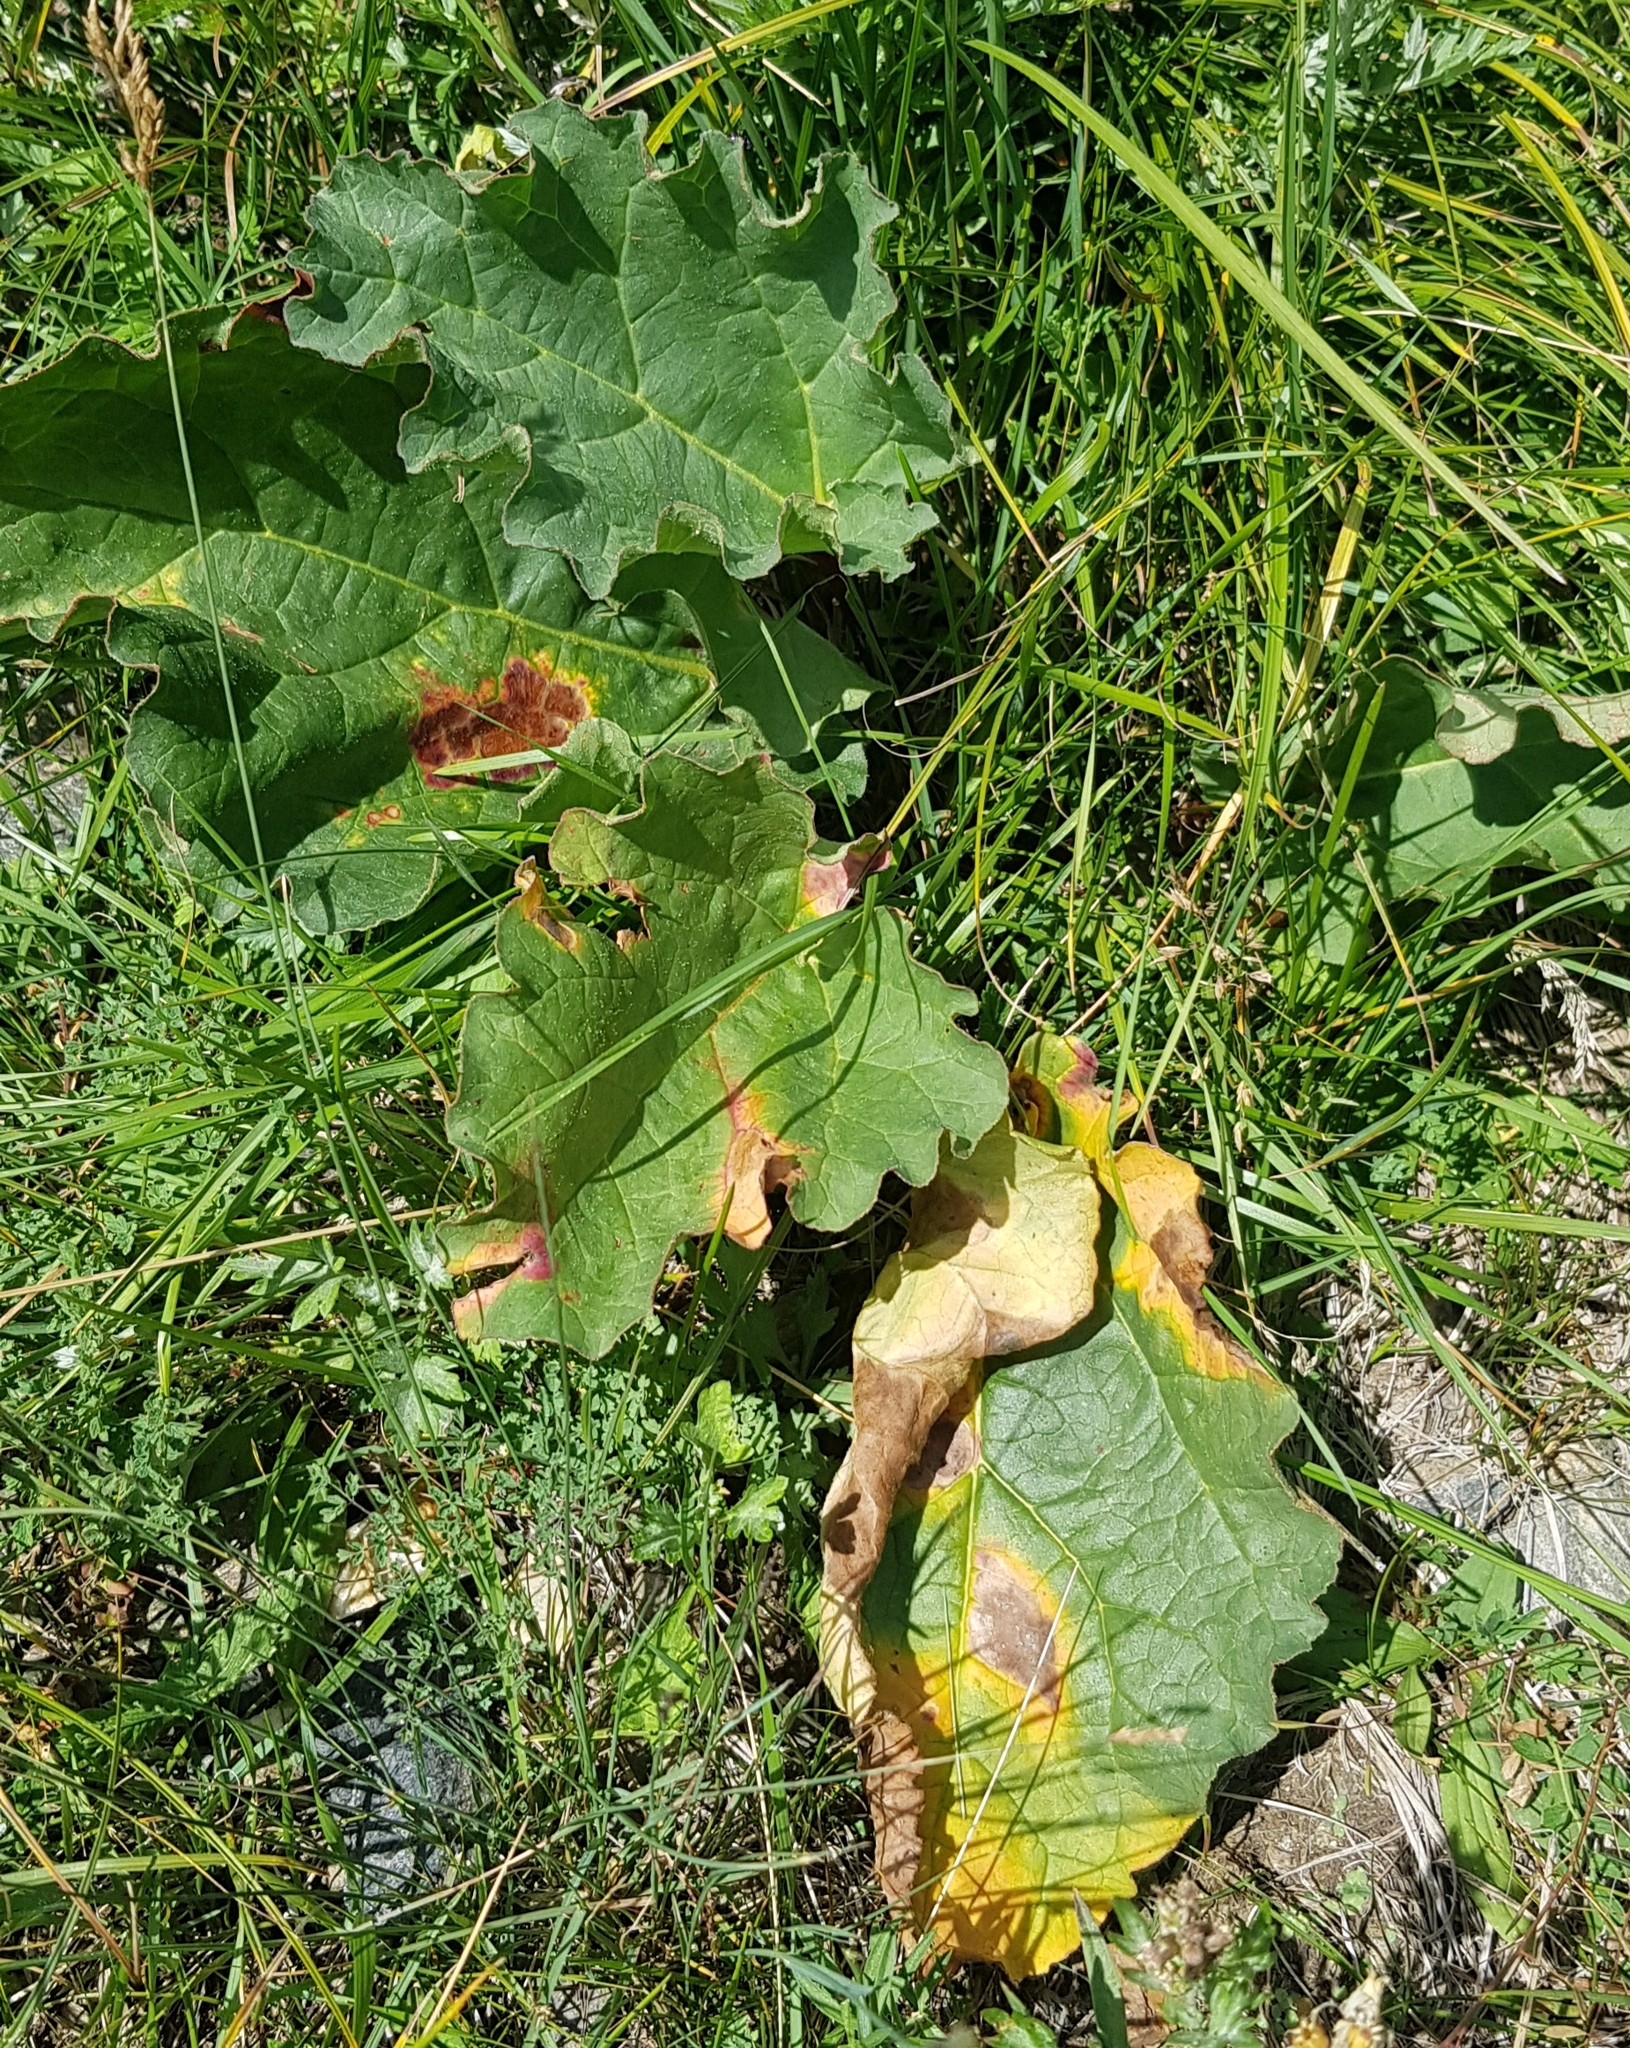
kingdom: Plantae
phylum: Tracheophyta
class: Magnoliopsida
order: Caryophyllales
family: Polygonaceae
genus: Rheum
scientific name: Rheum rhabarbarum
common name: Garden rhubarb
